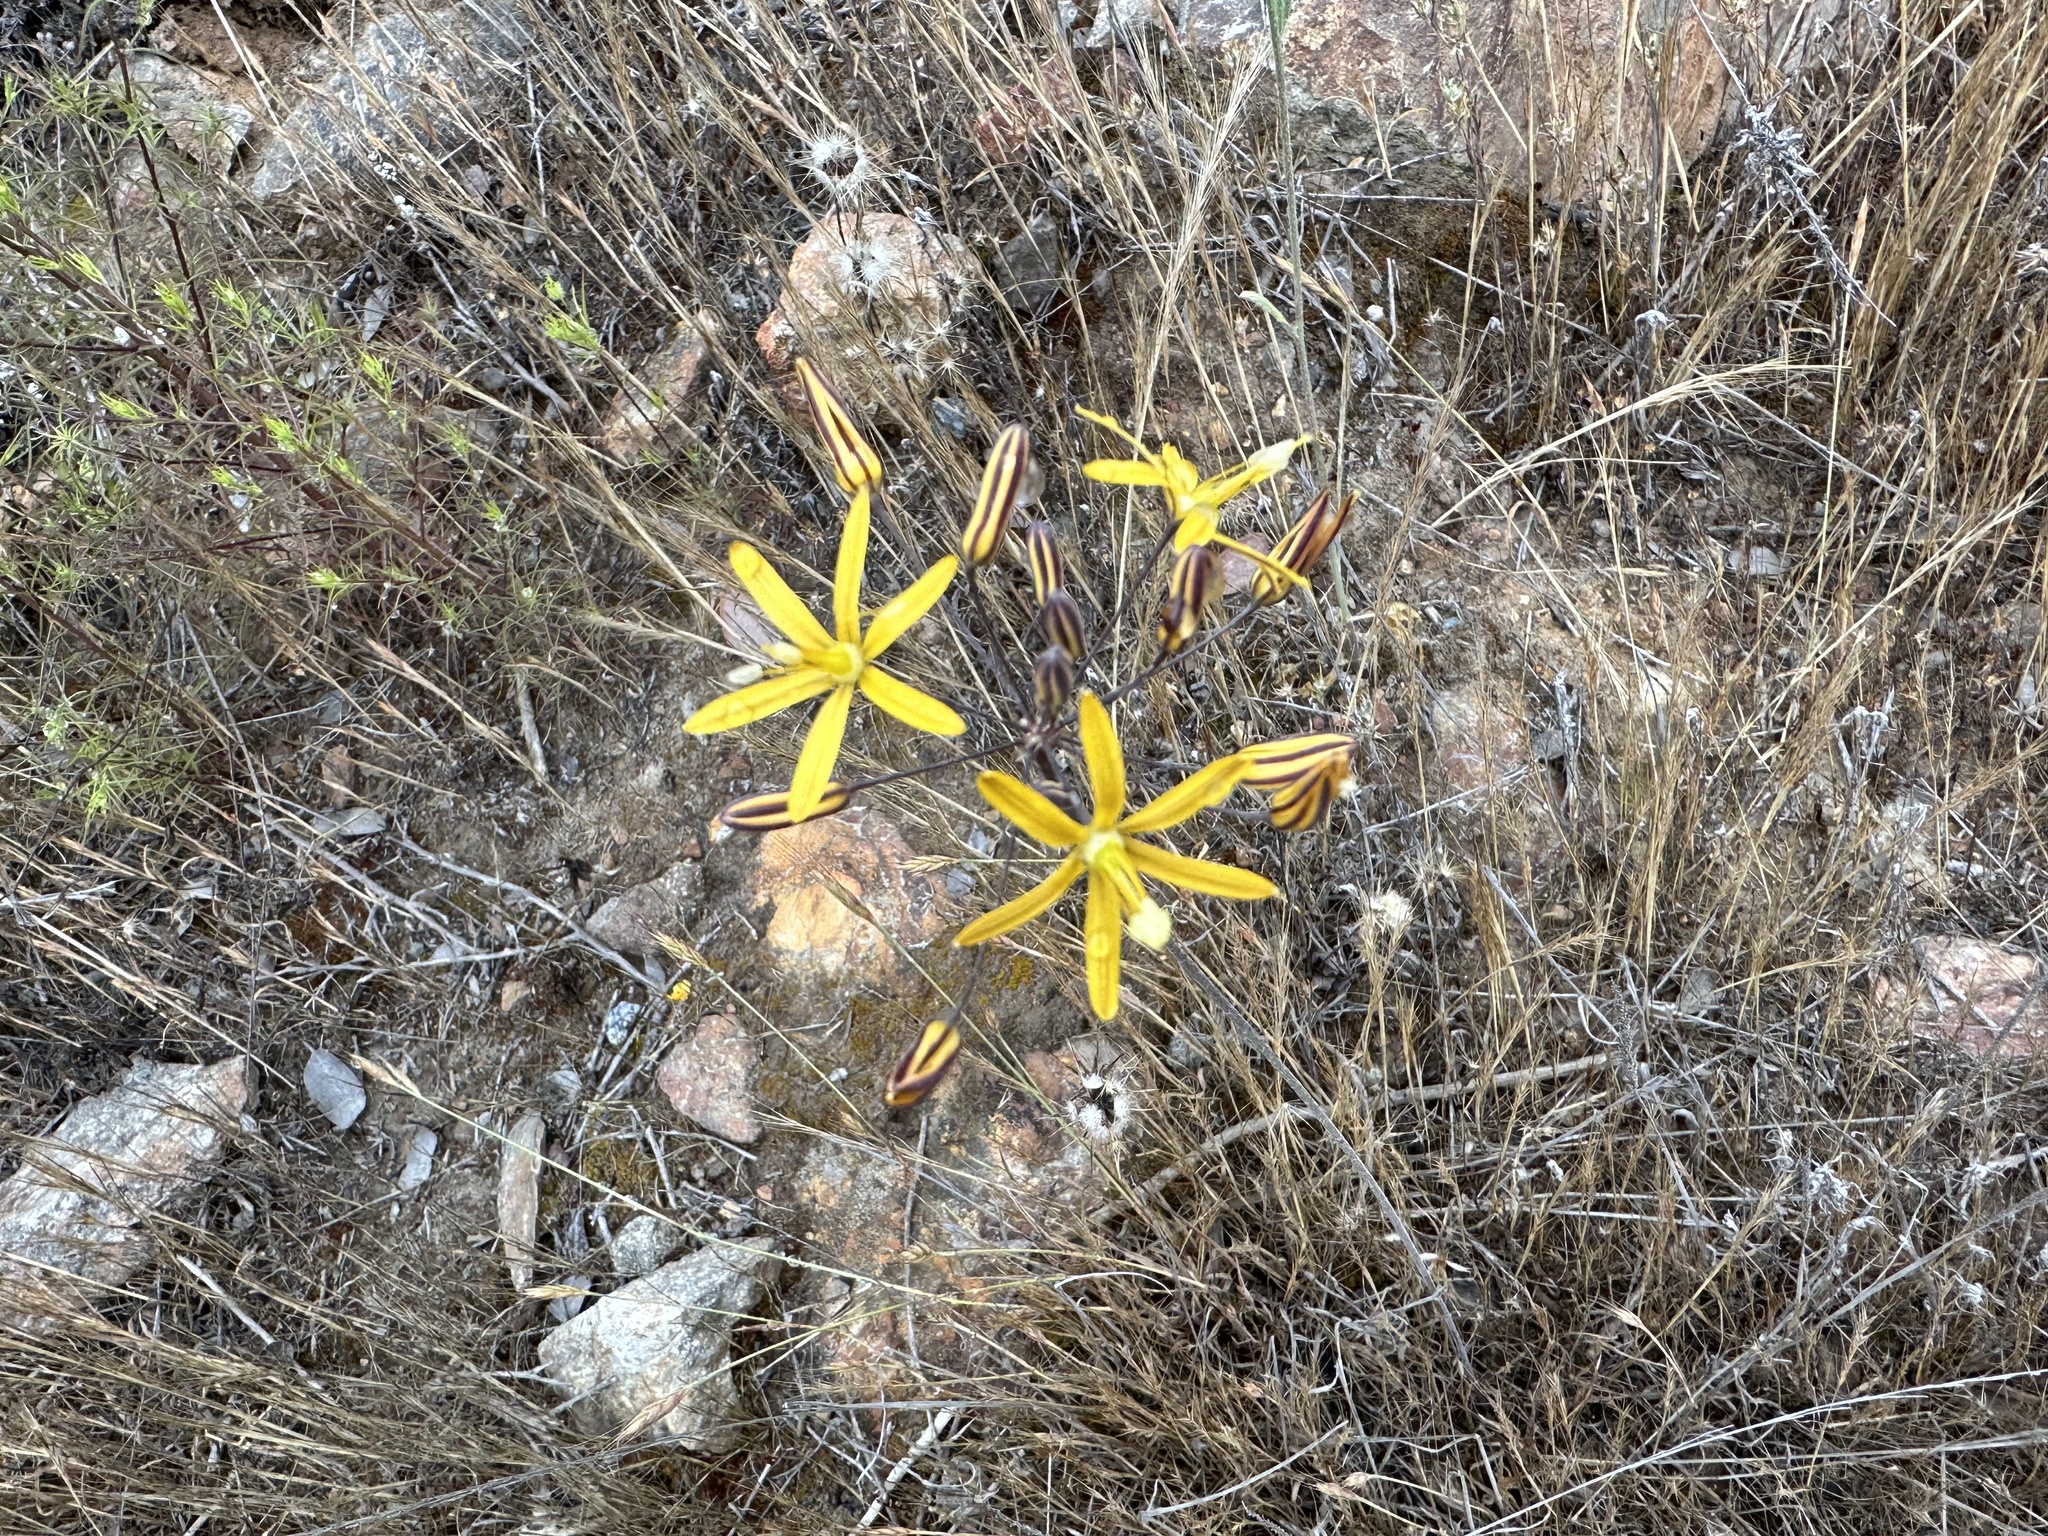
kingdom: Plantae
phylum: Tracheophyta
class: Liliopsida
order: Asparagales
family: Asparagaceae
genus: Bloomeria
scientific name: Bloomeria crocea
